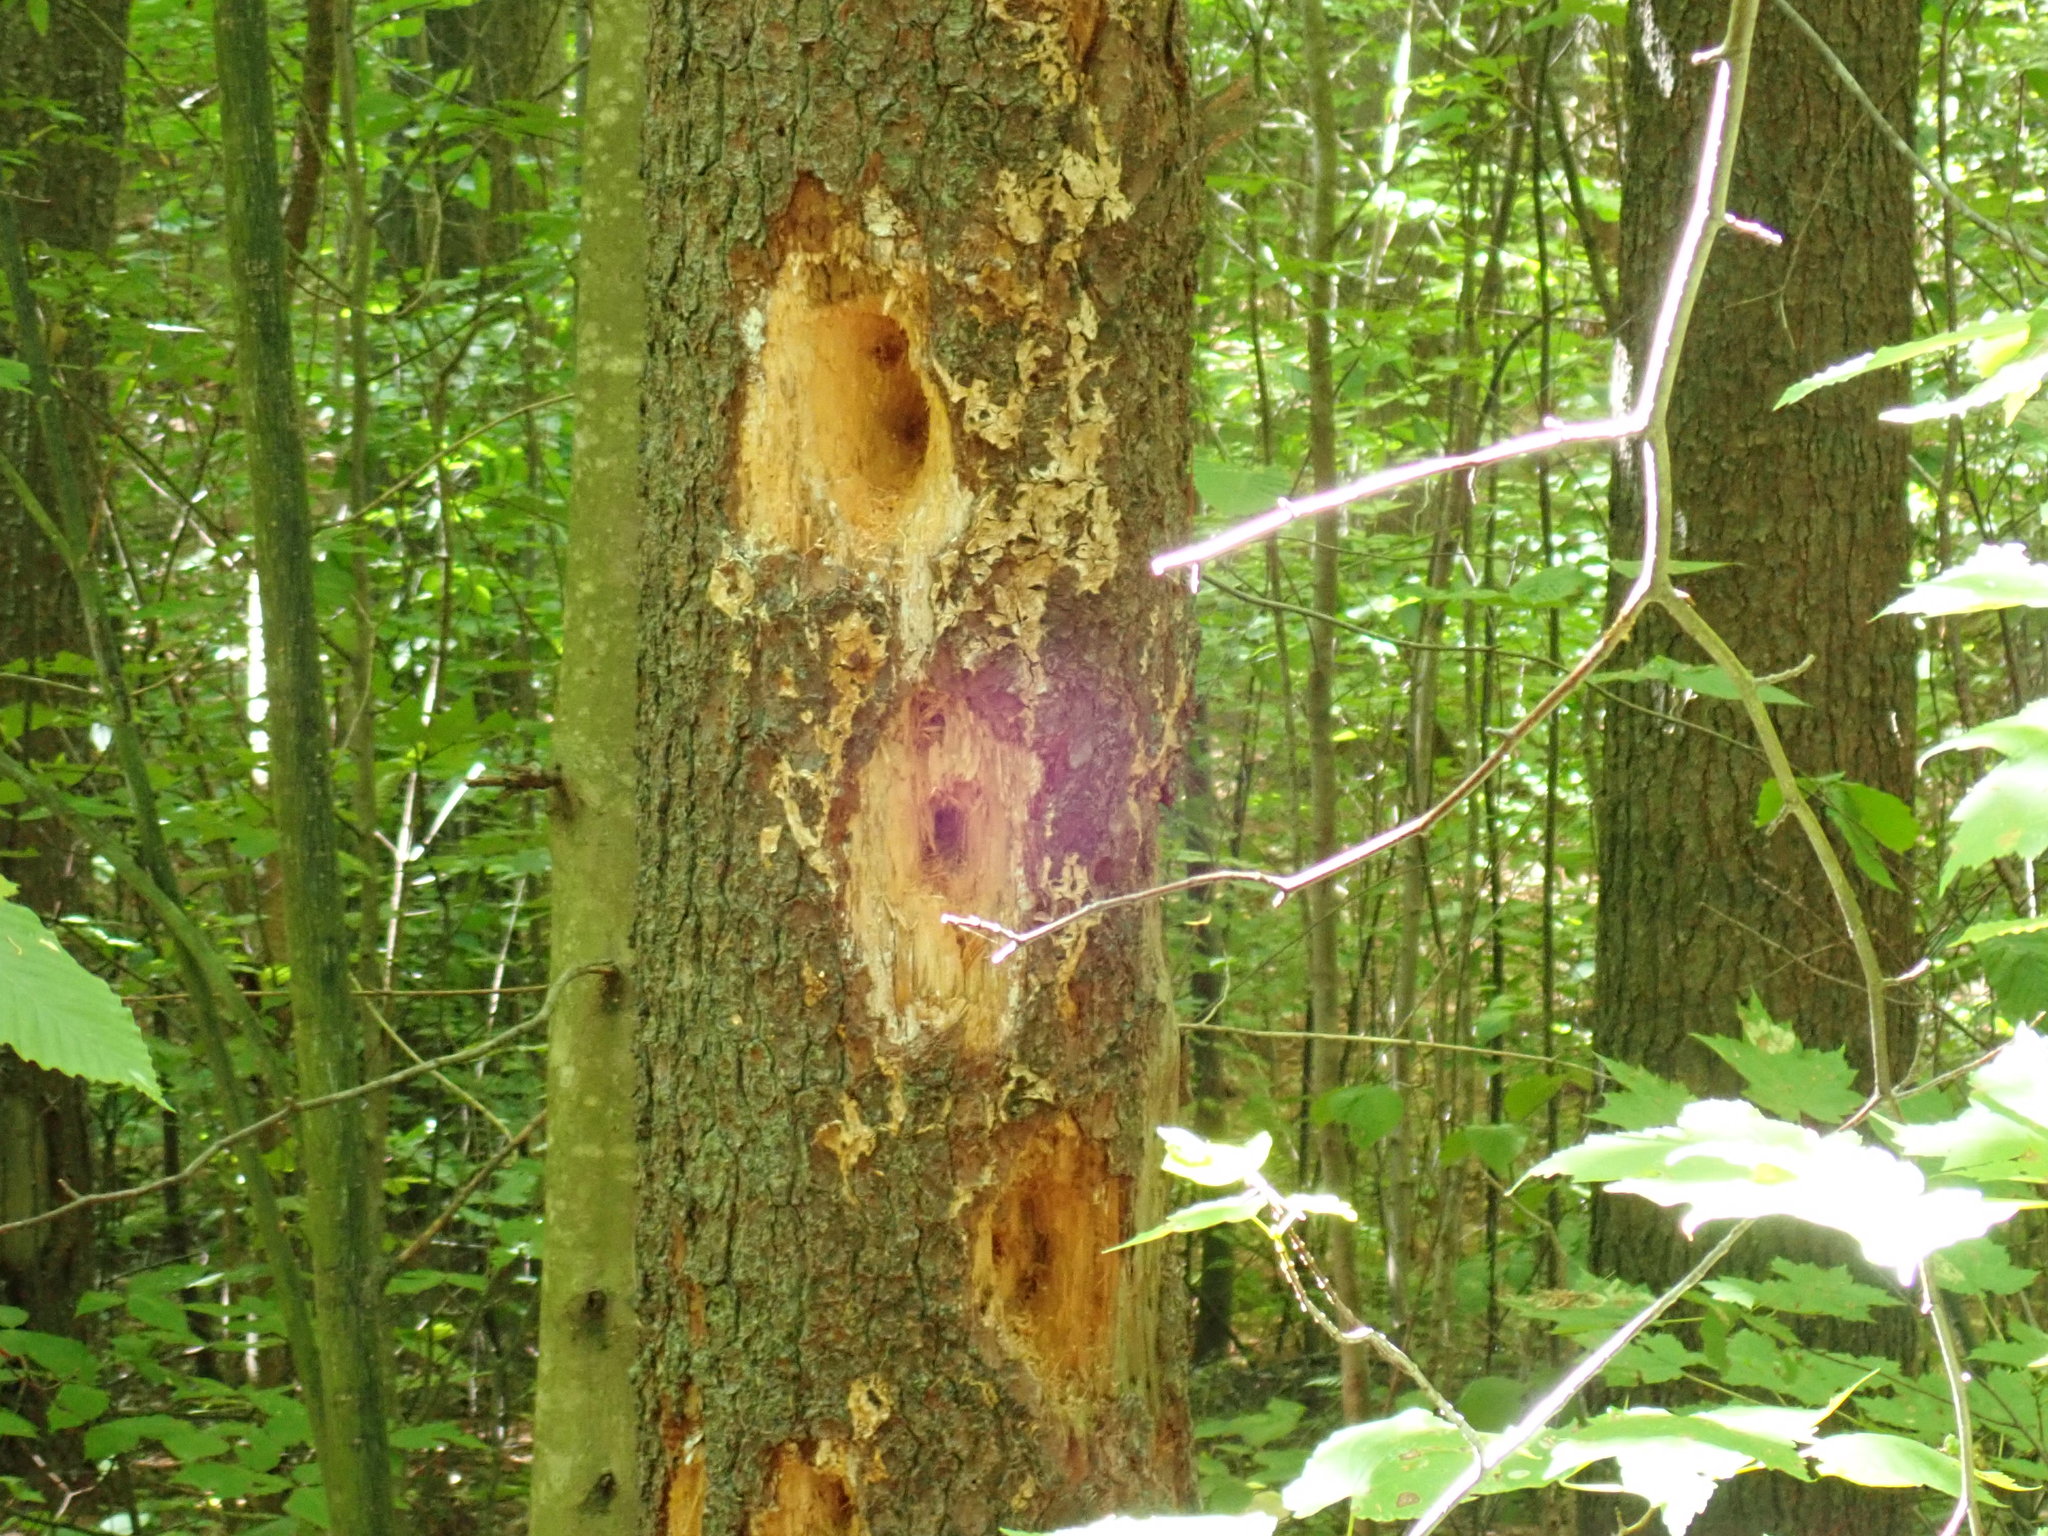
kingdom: Animalia
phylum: Chordata
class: Aves
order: Piciformes
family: Picidae
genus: Dryocopus
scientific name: Dryocopus pileatus
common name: Pileated woodpecker
